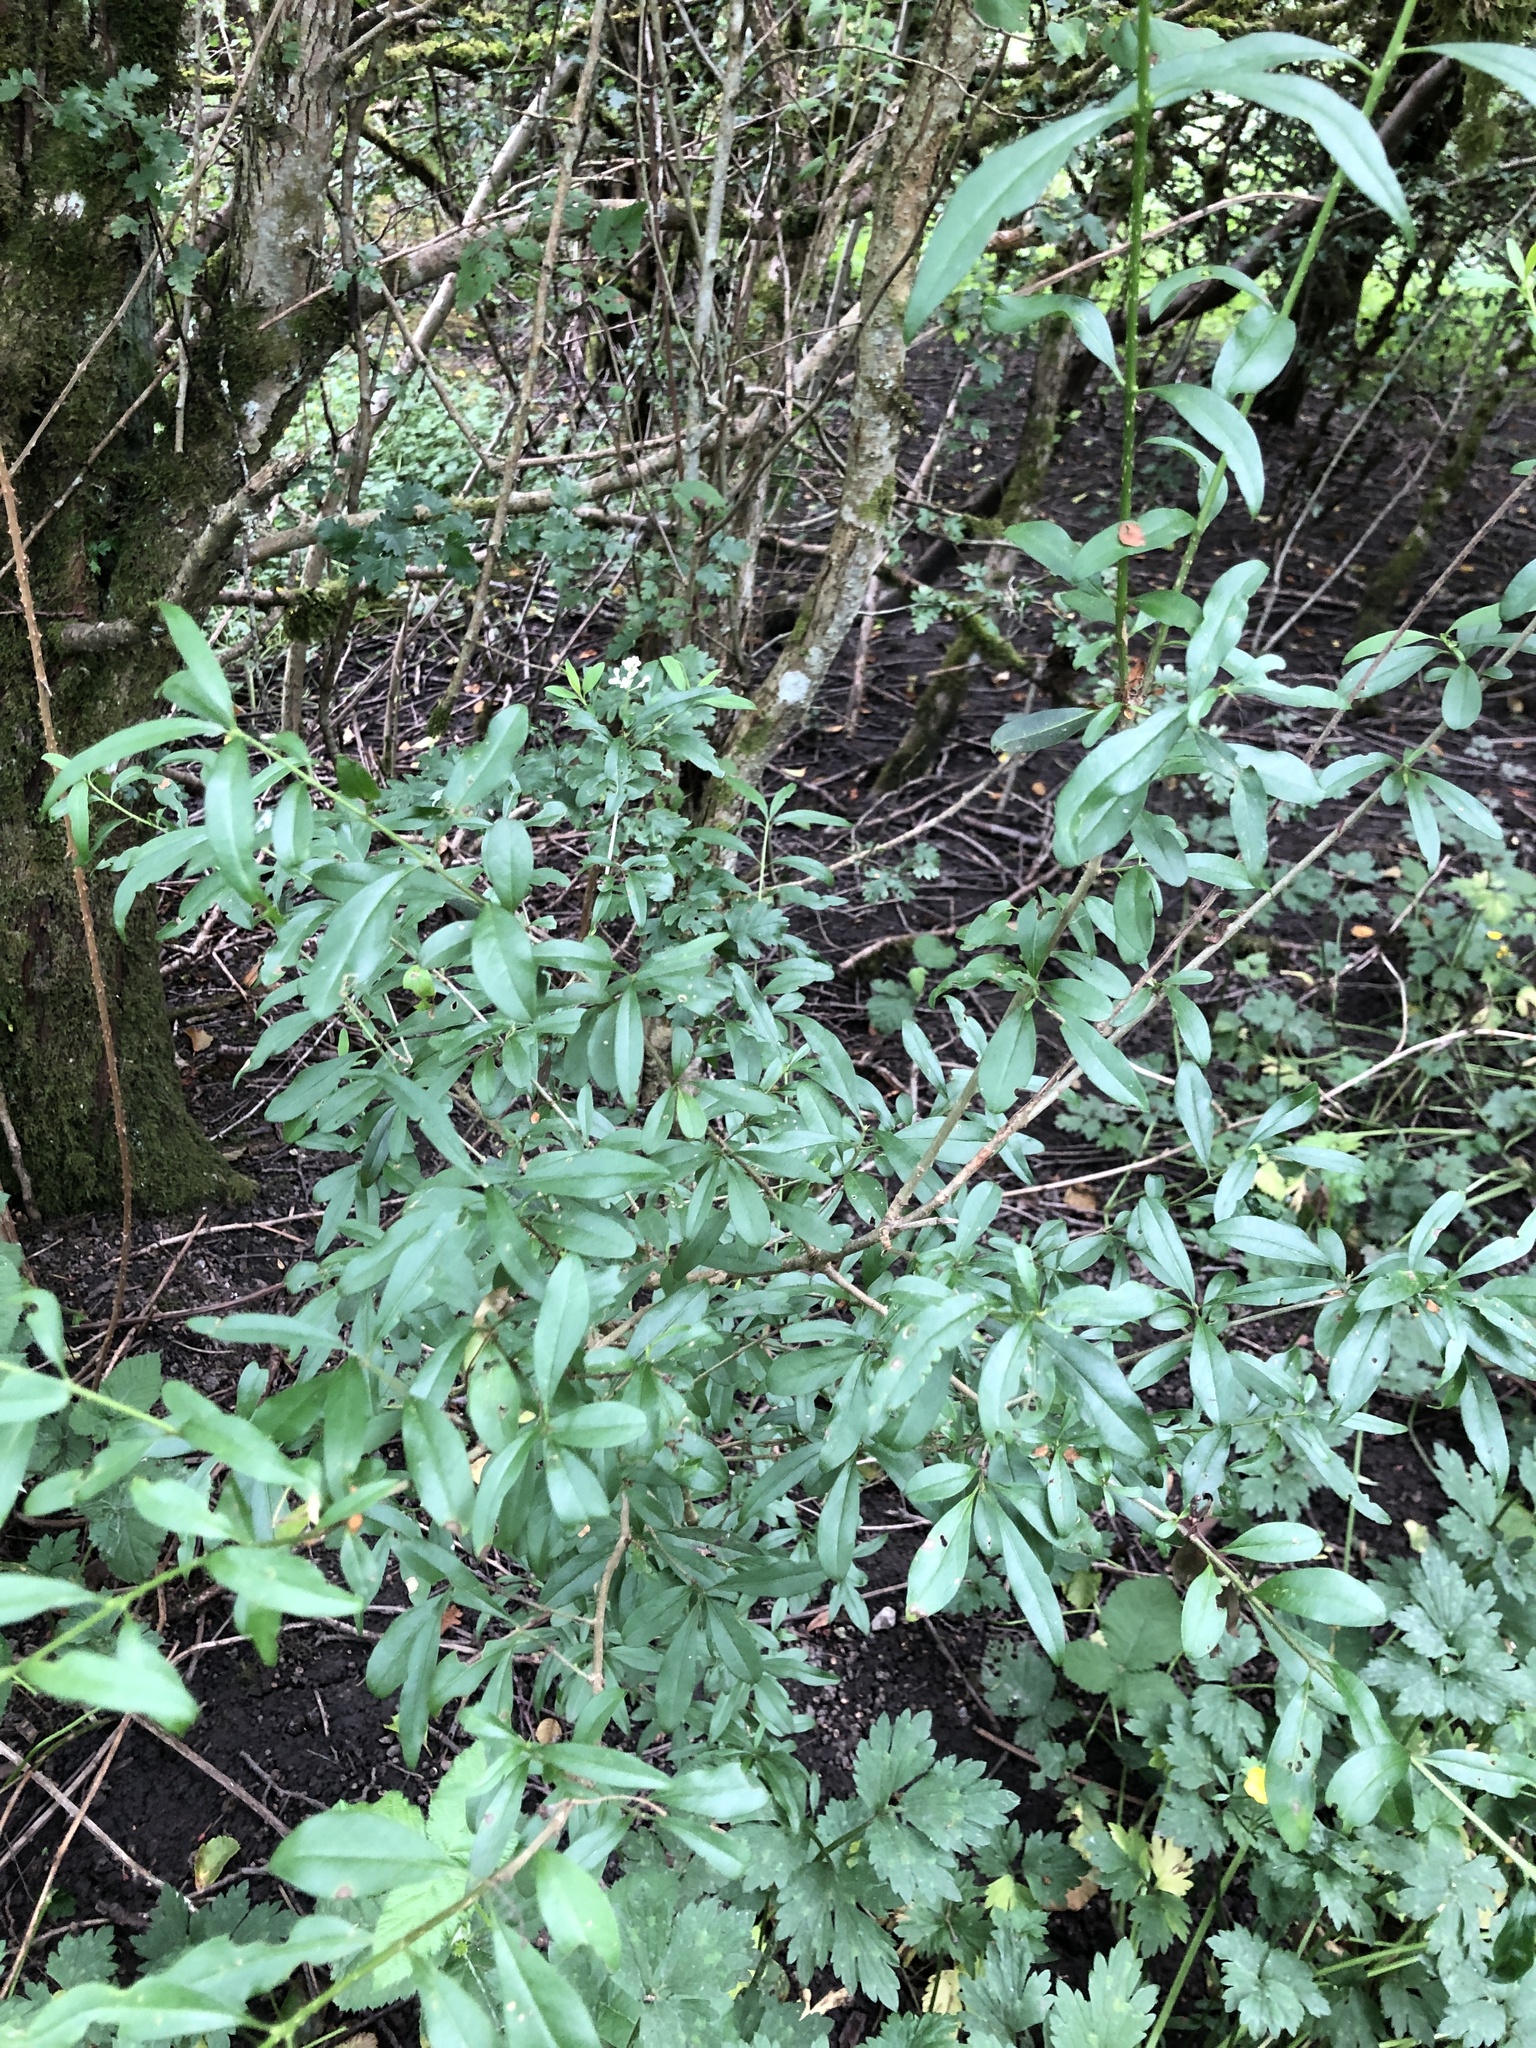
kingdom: Plantae
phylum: Tracheophyta
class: Magnoliopsida
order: Lamiales
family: Oleaceae
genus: Ligustrum
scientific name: Ligustrum vulgare
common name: Wild privet
